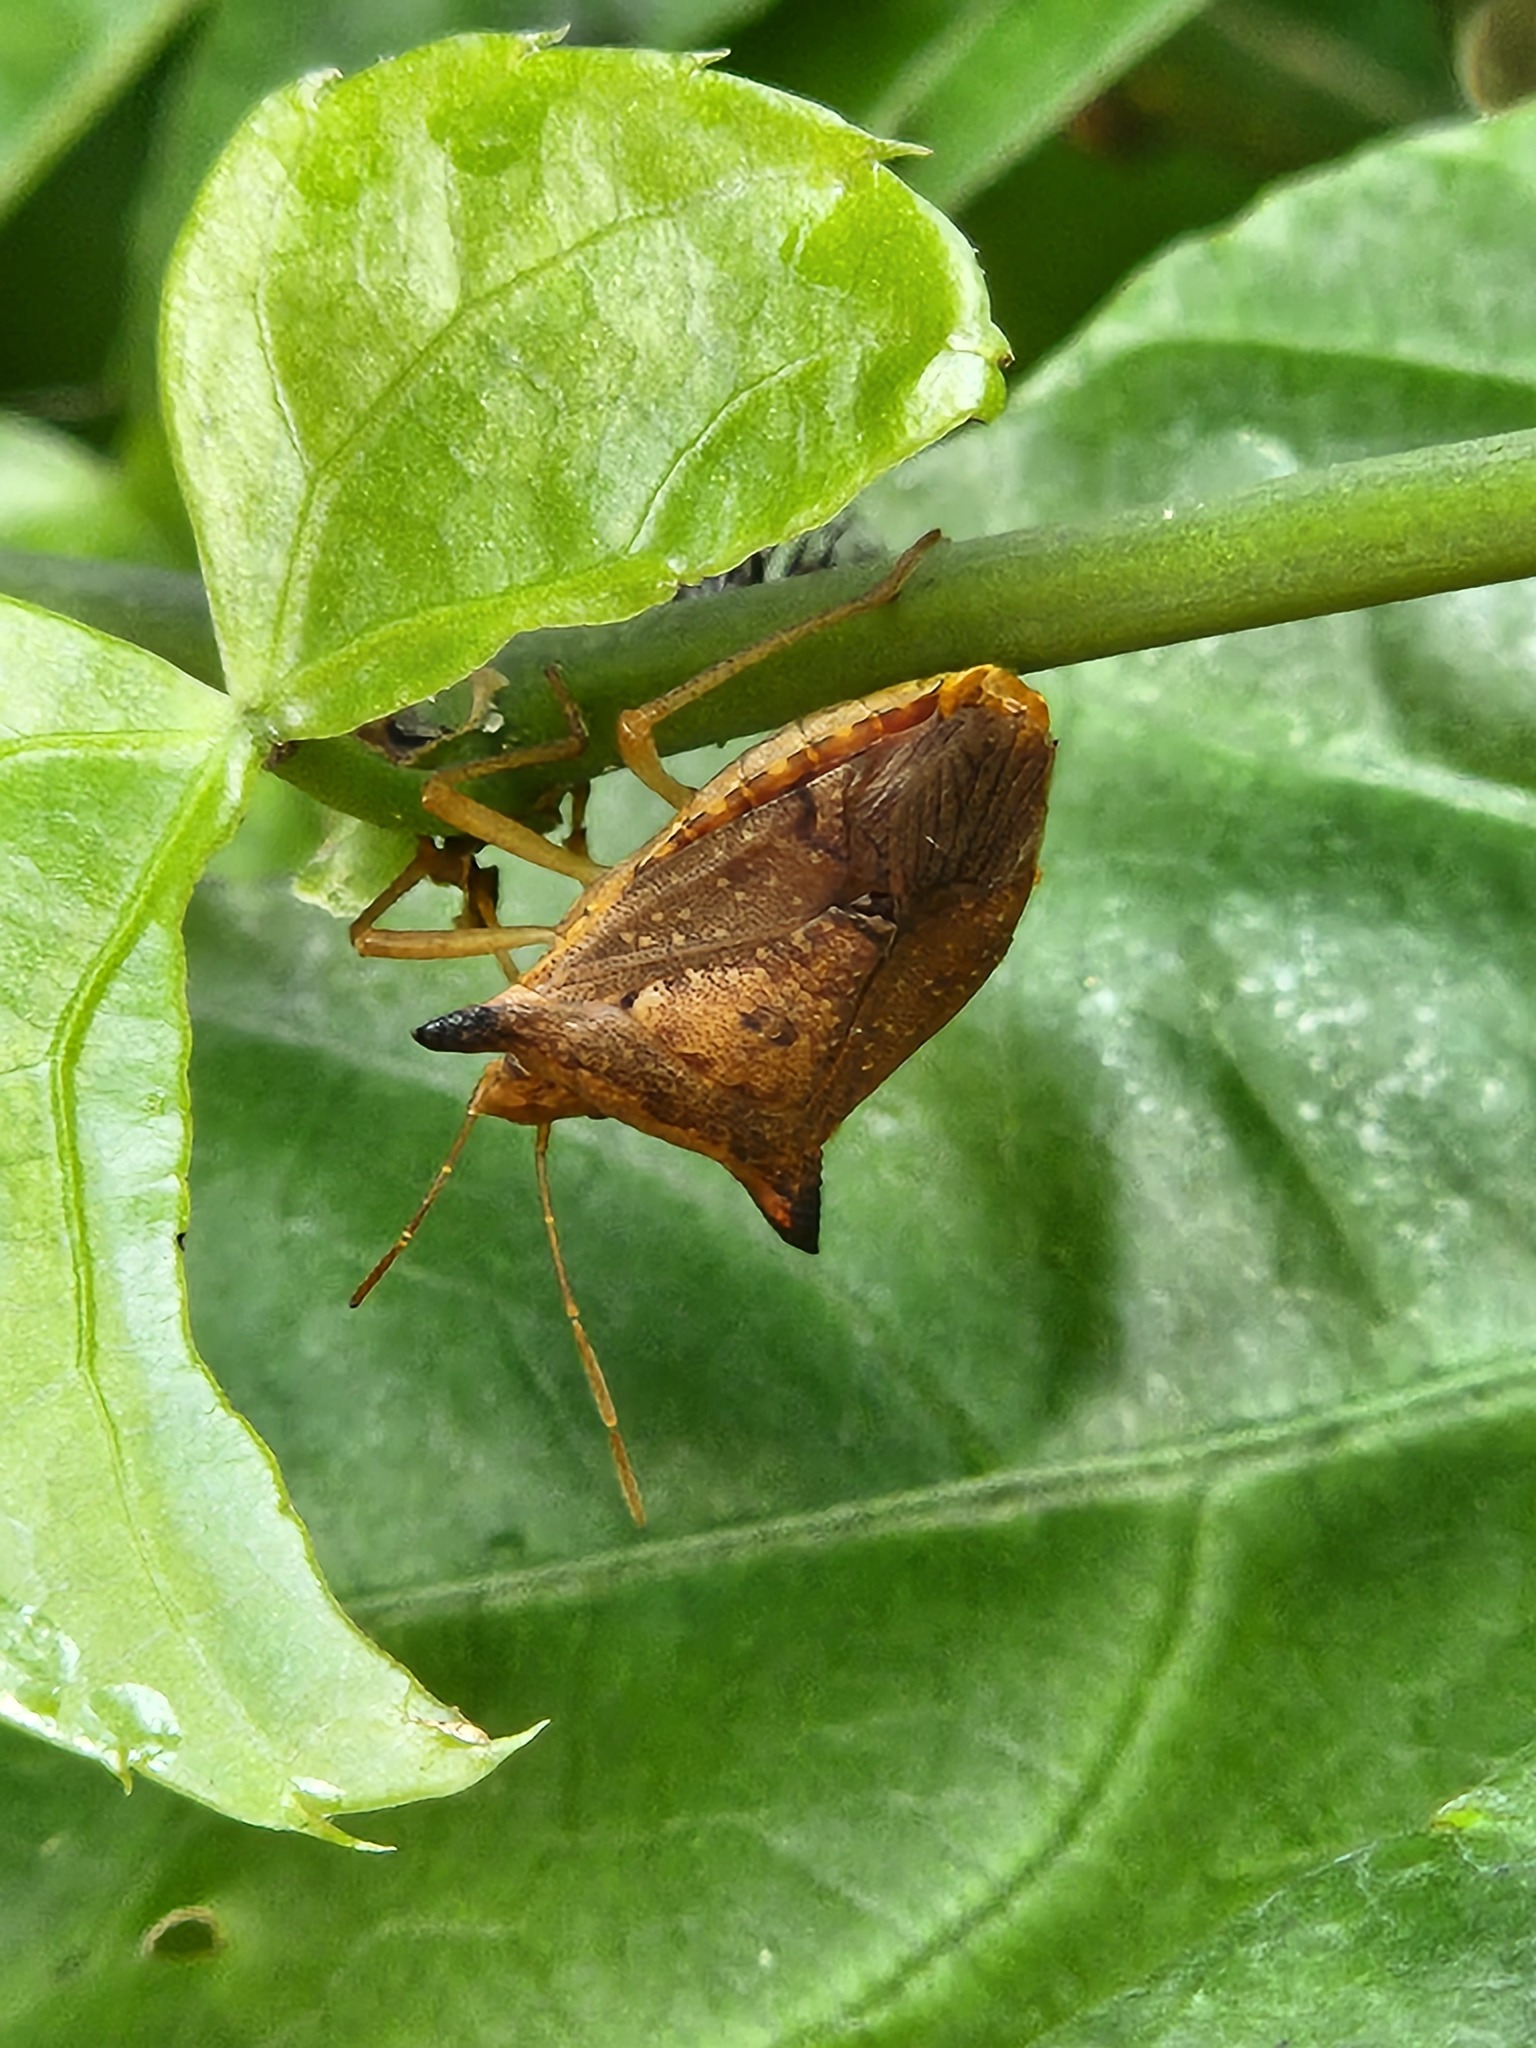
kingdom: Animalia
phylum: Arthropoda
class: Insecta
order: Hemiptera
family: Pentatomidae
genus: Euschistus
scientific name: Euschistus heros
